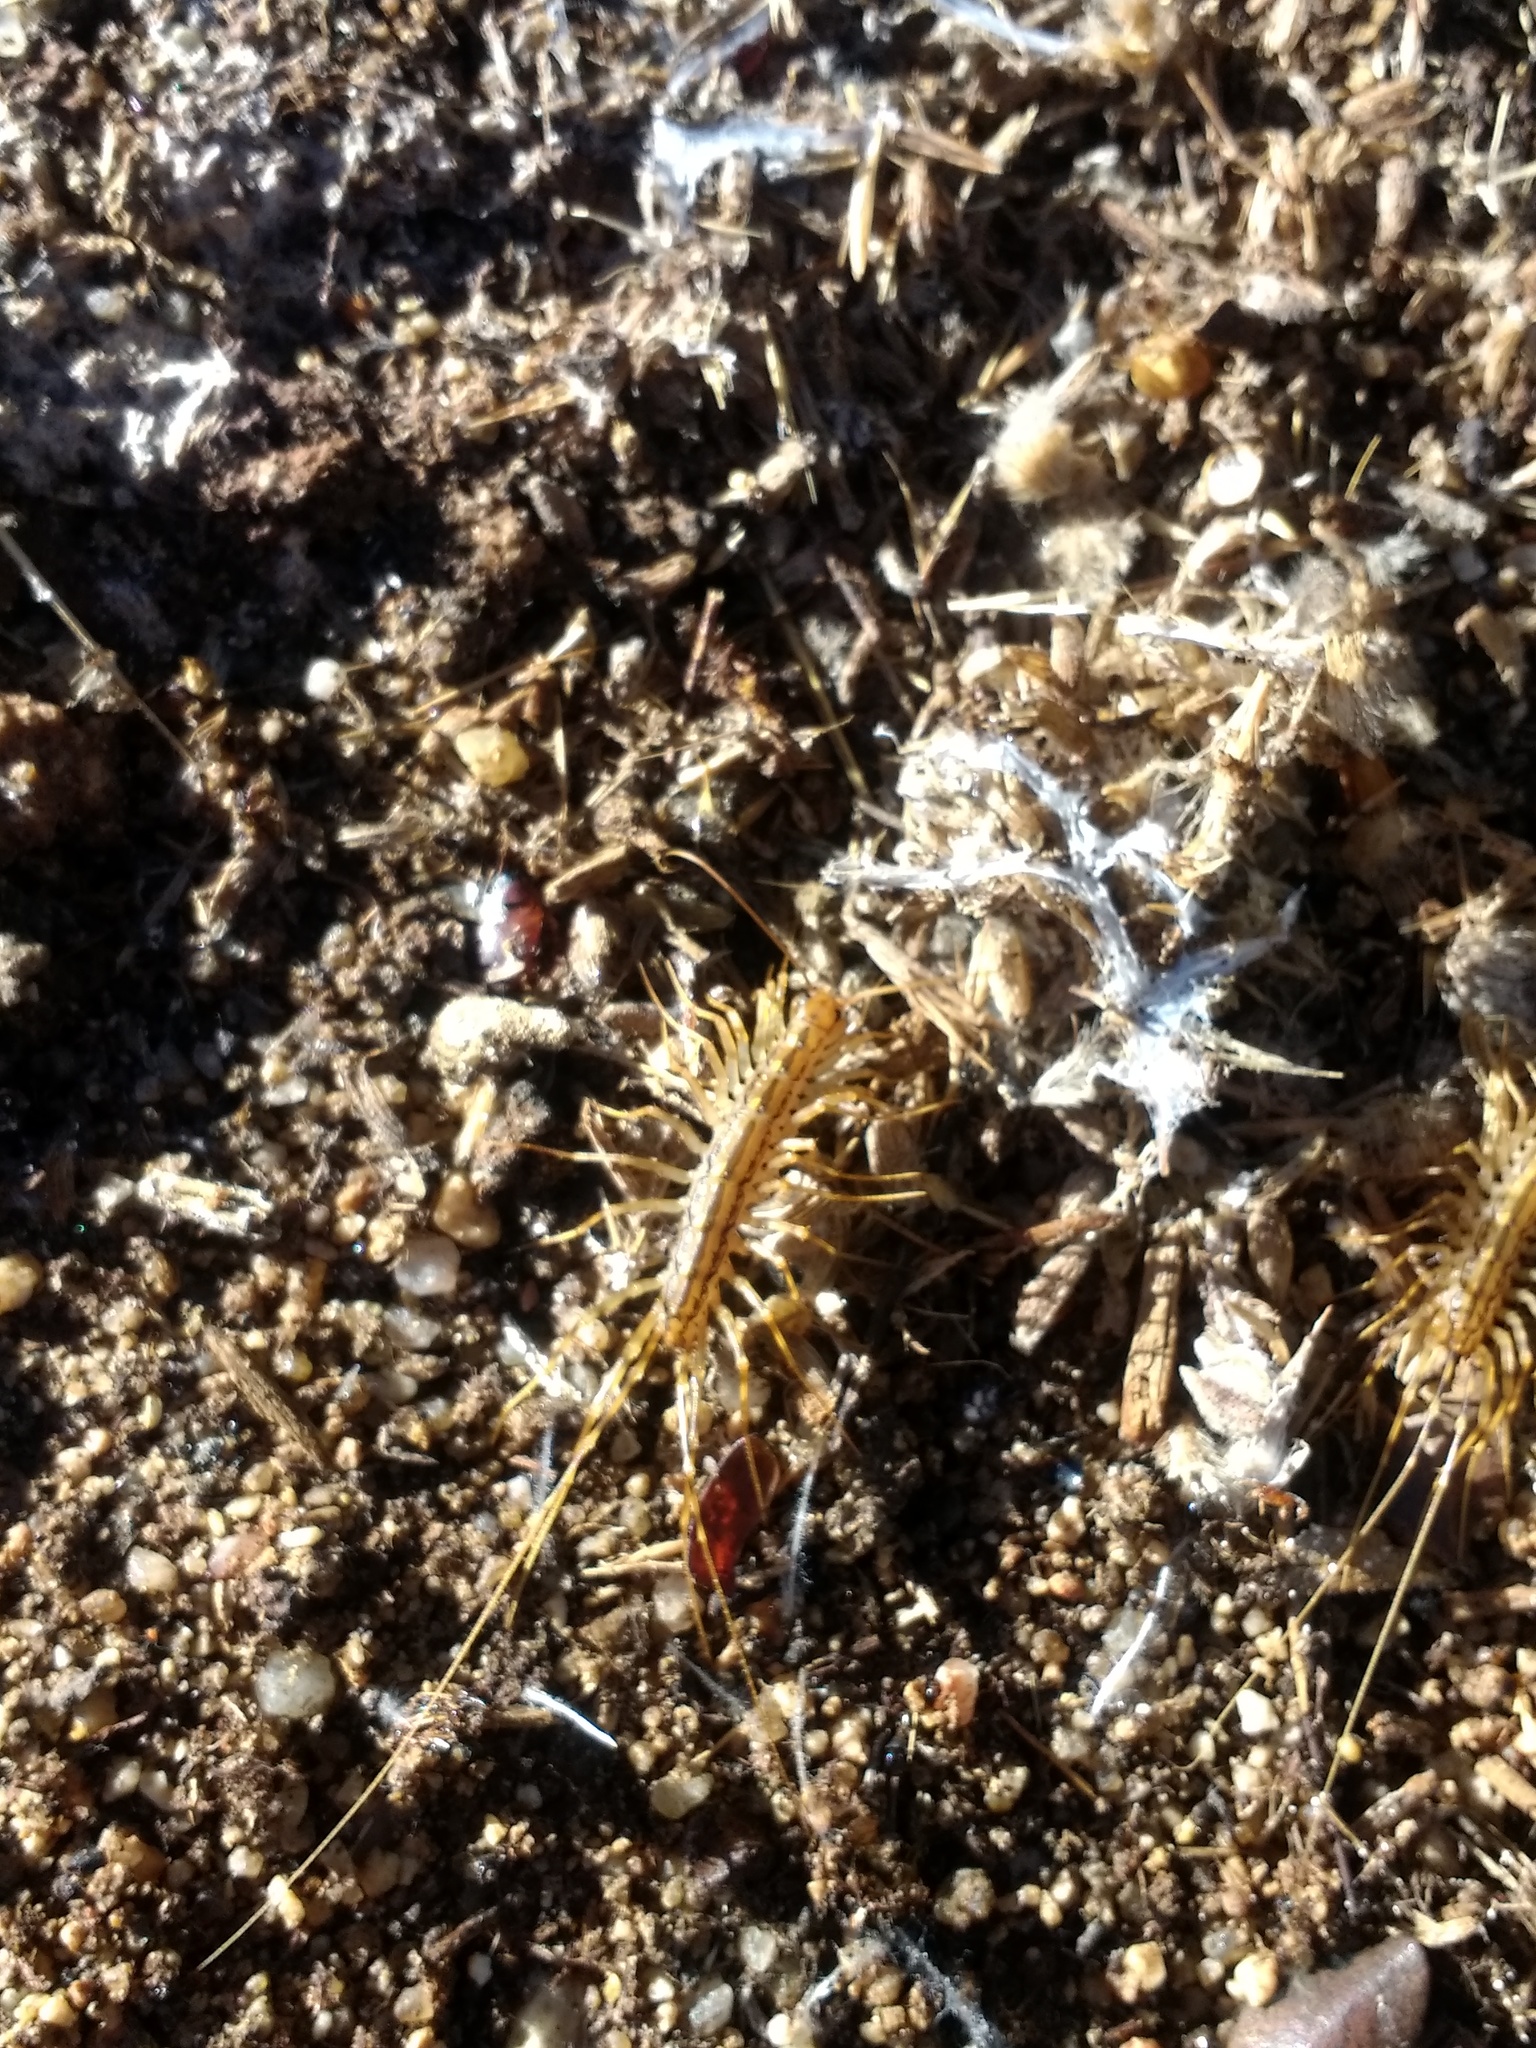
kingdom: Animalia
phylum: Arthropoda
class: Chilopoda
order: Scutigeromorpha
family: Scutigeridae
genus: Scutigera
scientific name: Scutigera coleoptrata
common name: House centipede
